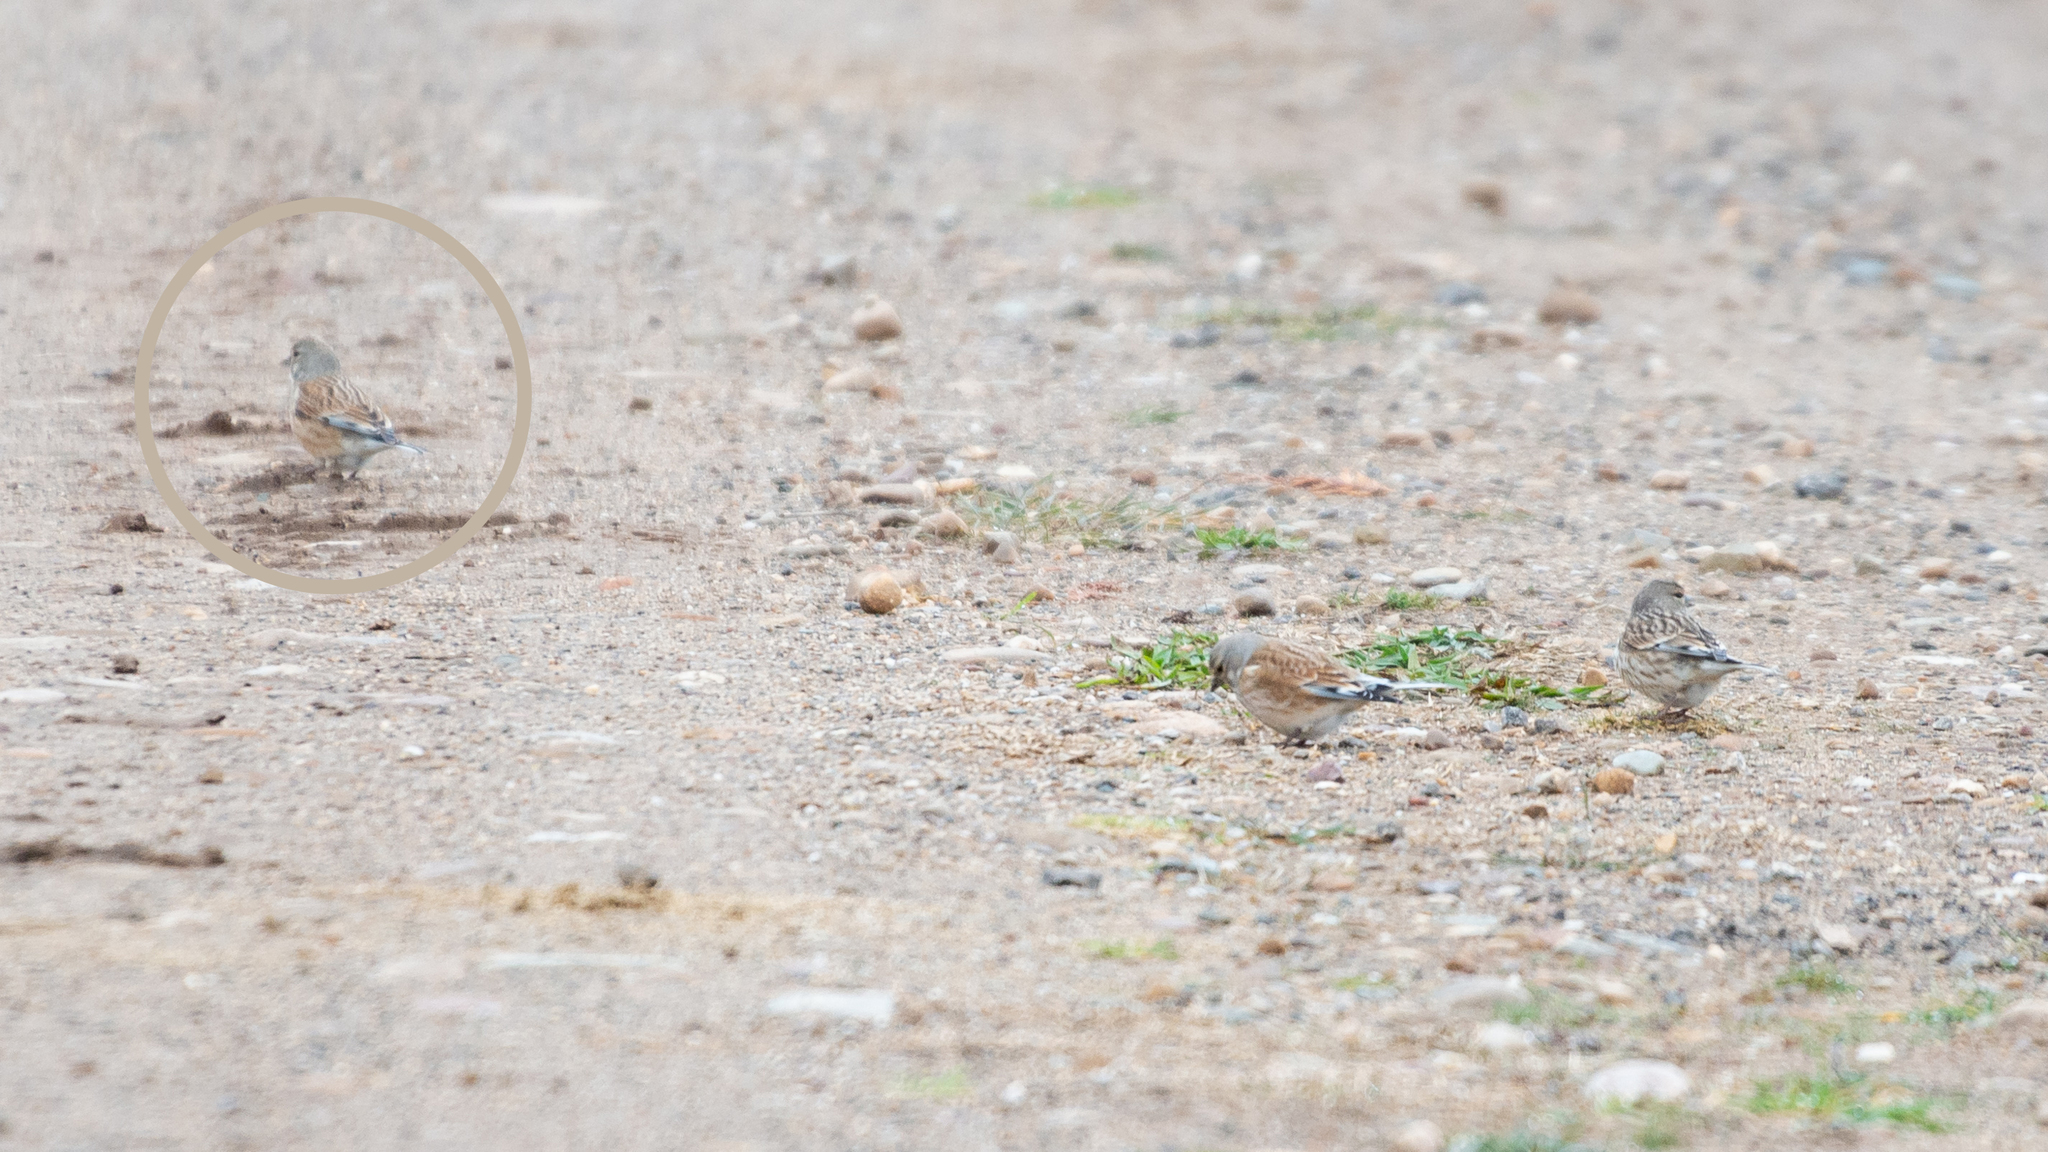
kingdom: Animalia
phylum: Chordata
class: Aves
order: Passeriformes
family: Fringillidae
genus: Linaria
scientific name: Linaria cannabina
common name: Common linnet
